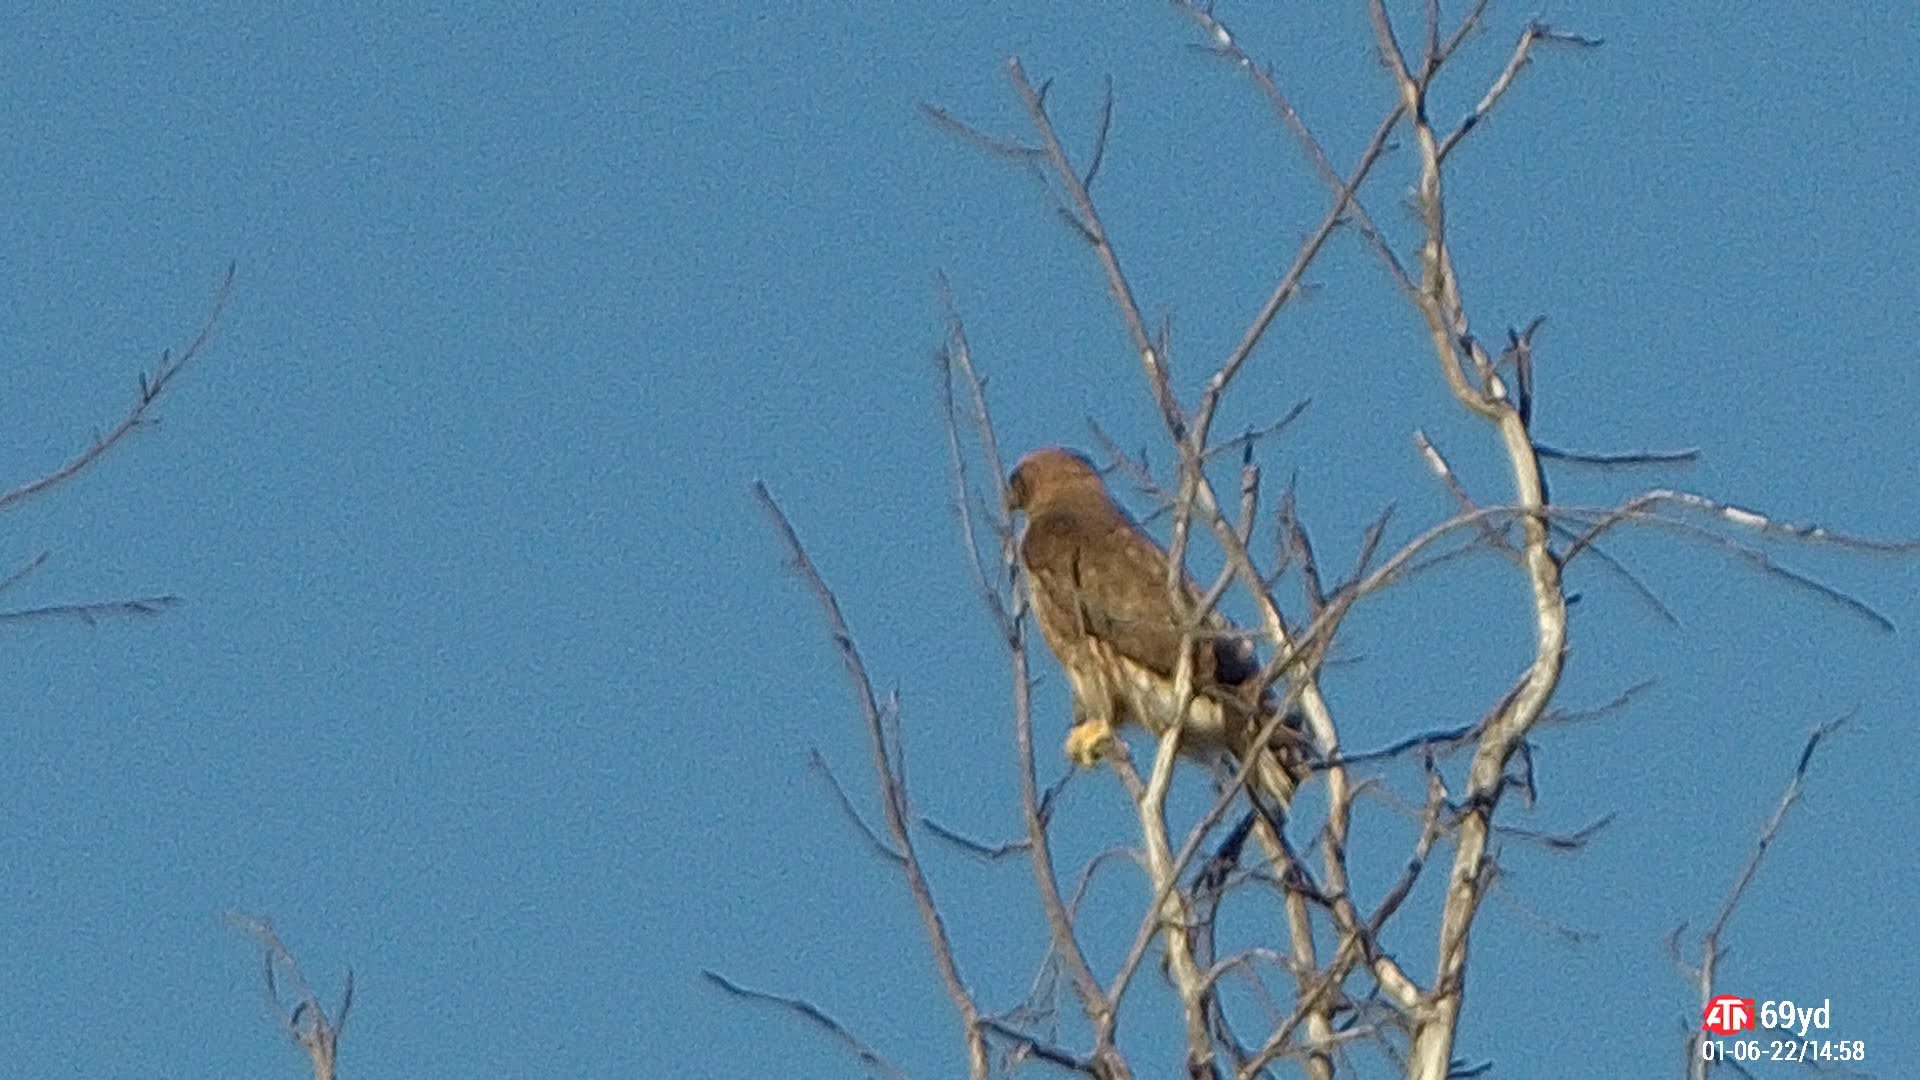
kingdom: Animalia
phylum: Chordata
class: Aves
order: Accipitriformes
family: Accipitridae
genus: Buteo
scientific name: Buteo jamaicensis
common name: Red-tailed hawk
